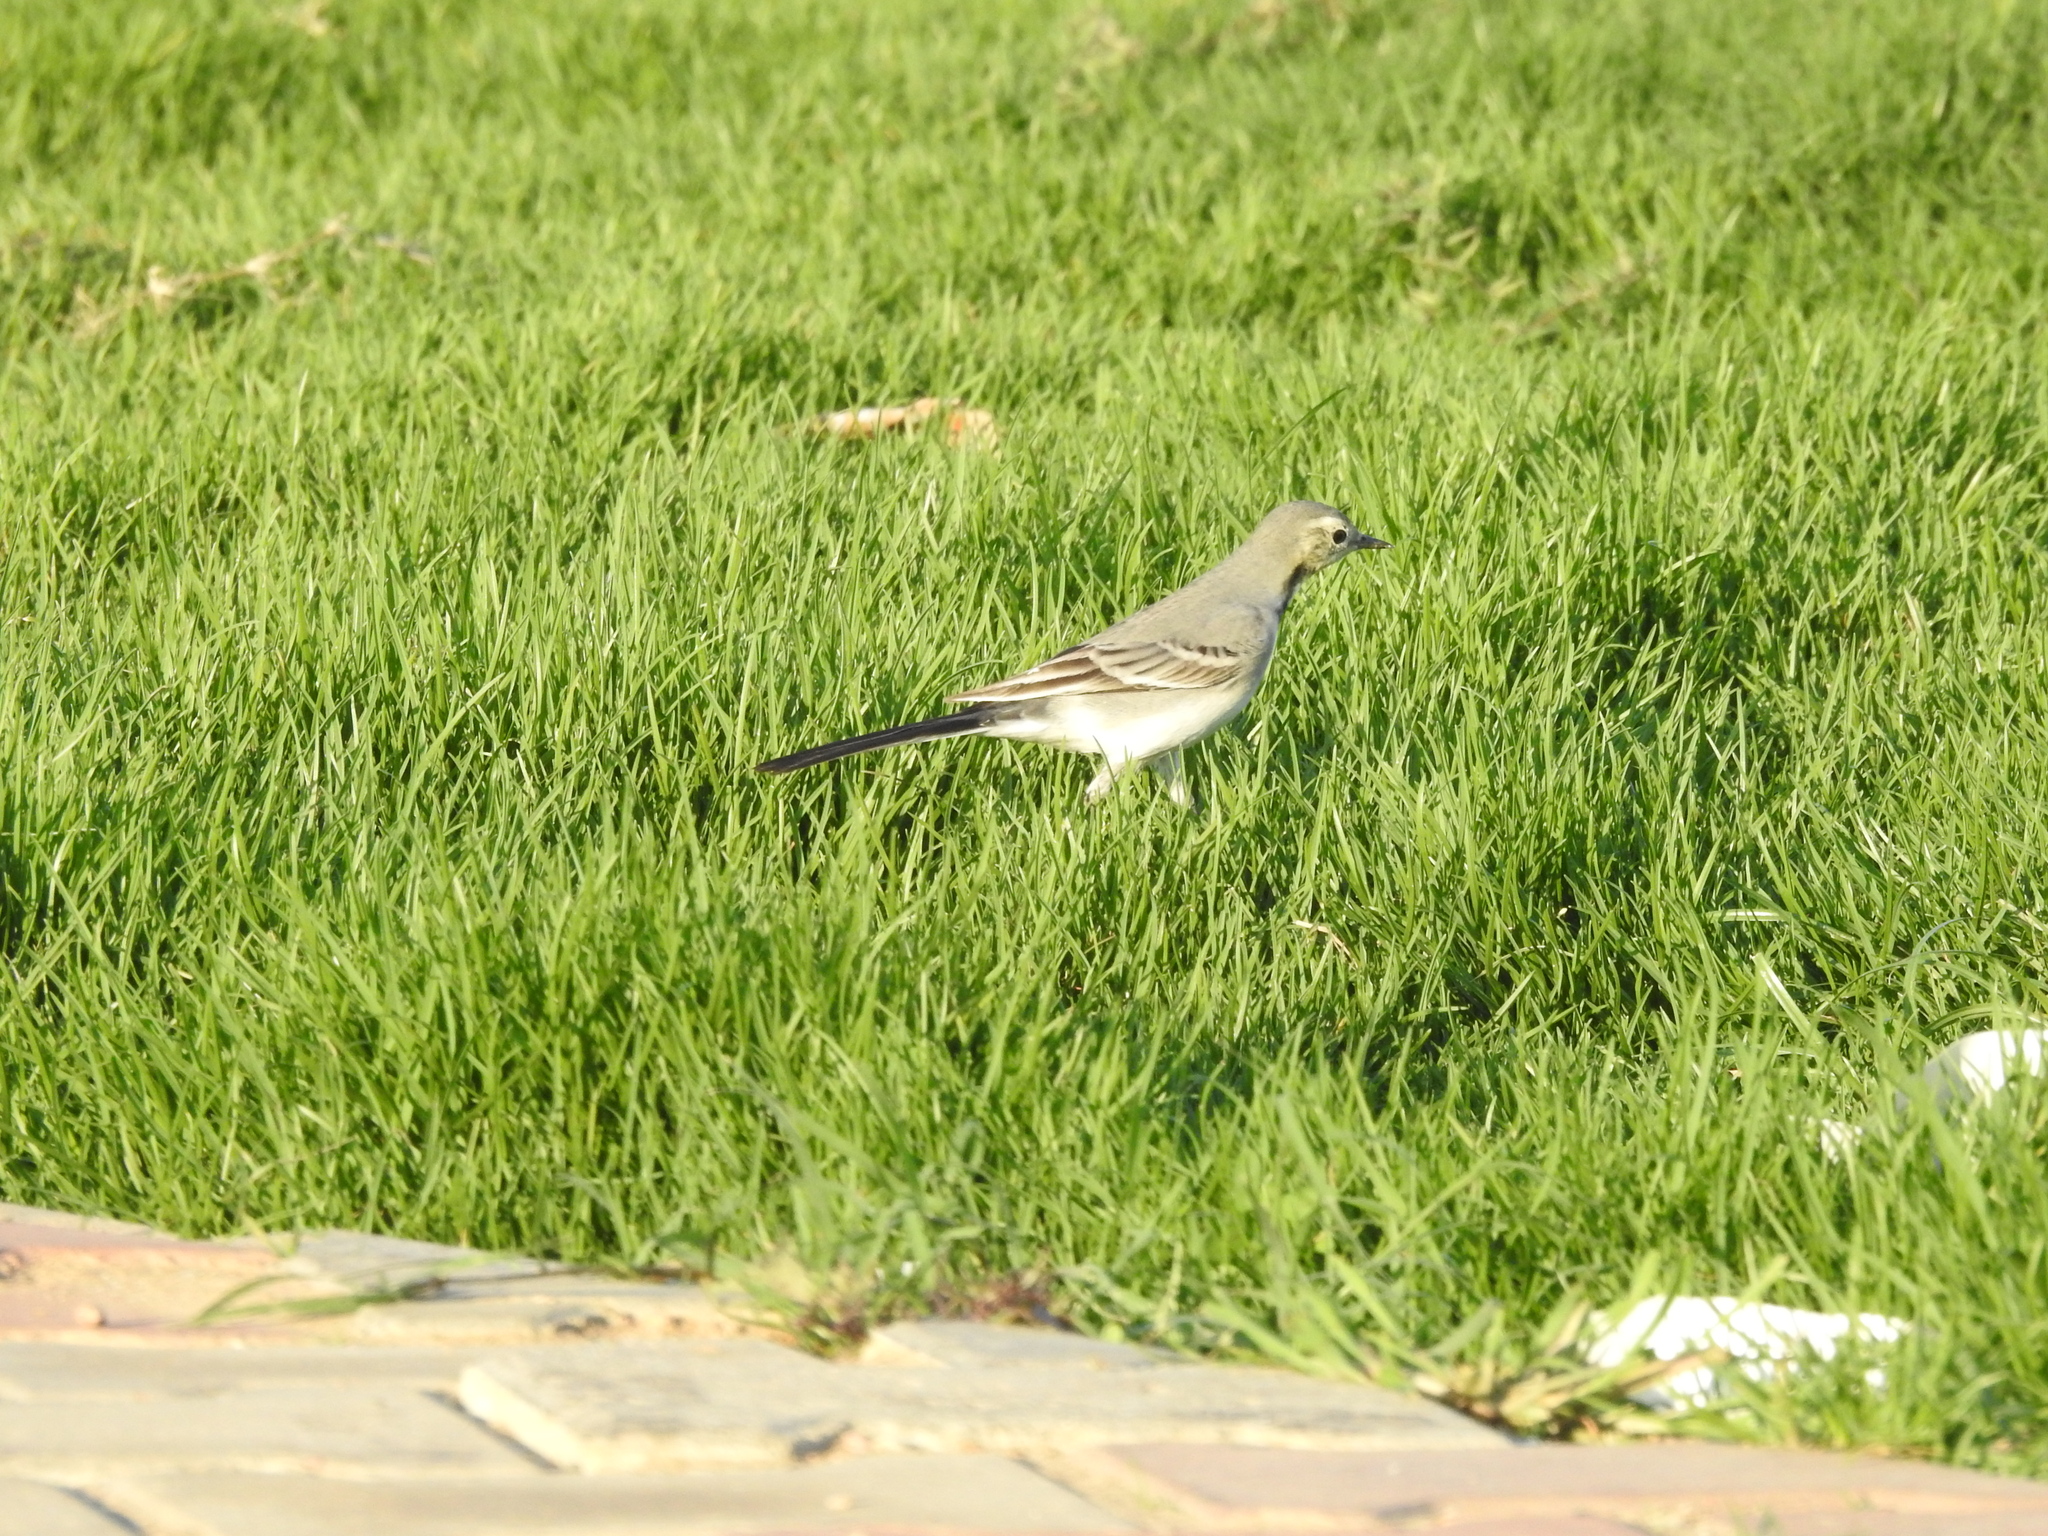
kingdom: Animalia
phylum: Chordata
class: Aves
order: Passeriformes
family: Motacillidae
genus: Motacilla
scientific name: Motacilla alba
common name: White wagtail
